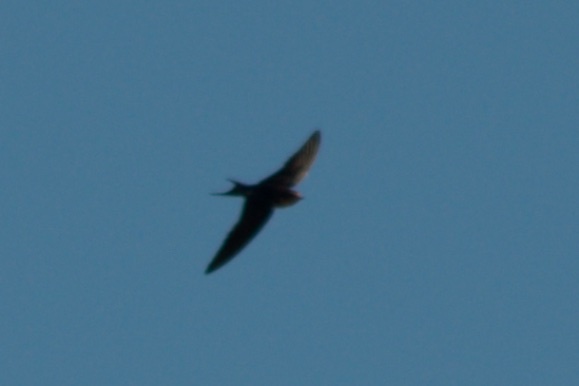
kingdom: Animalia
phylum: Chordata
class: Aves
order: Passeriformes
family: Hirundinidae
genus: Hirundo
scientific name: Hirundo rustica
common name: Barn swallow
